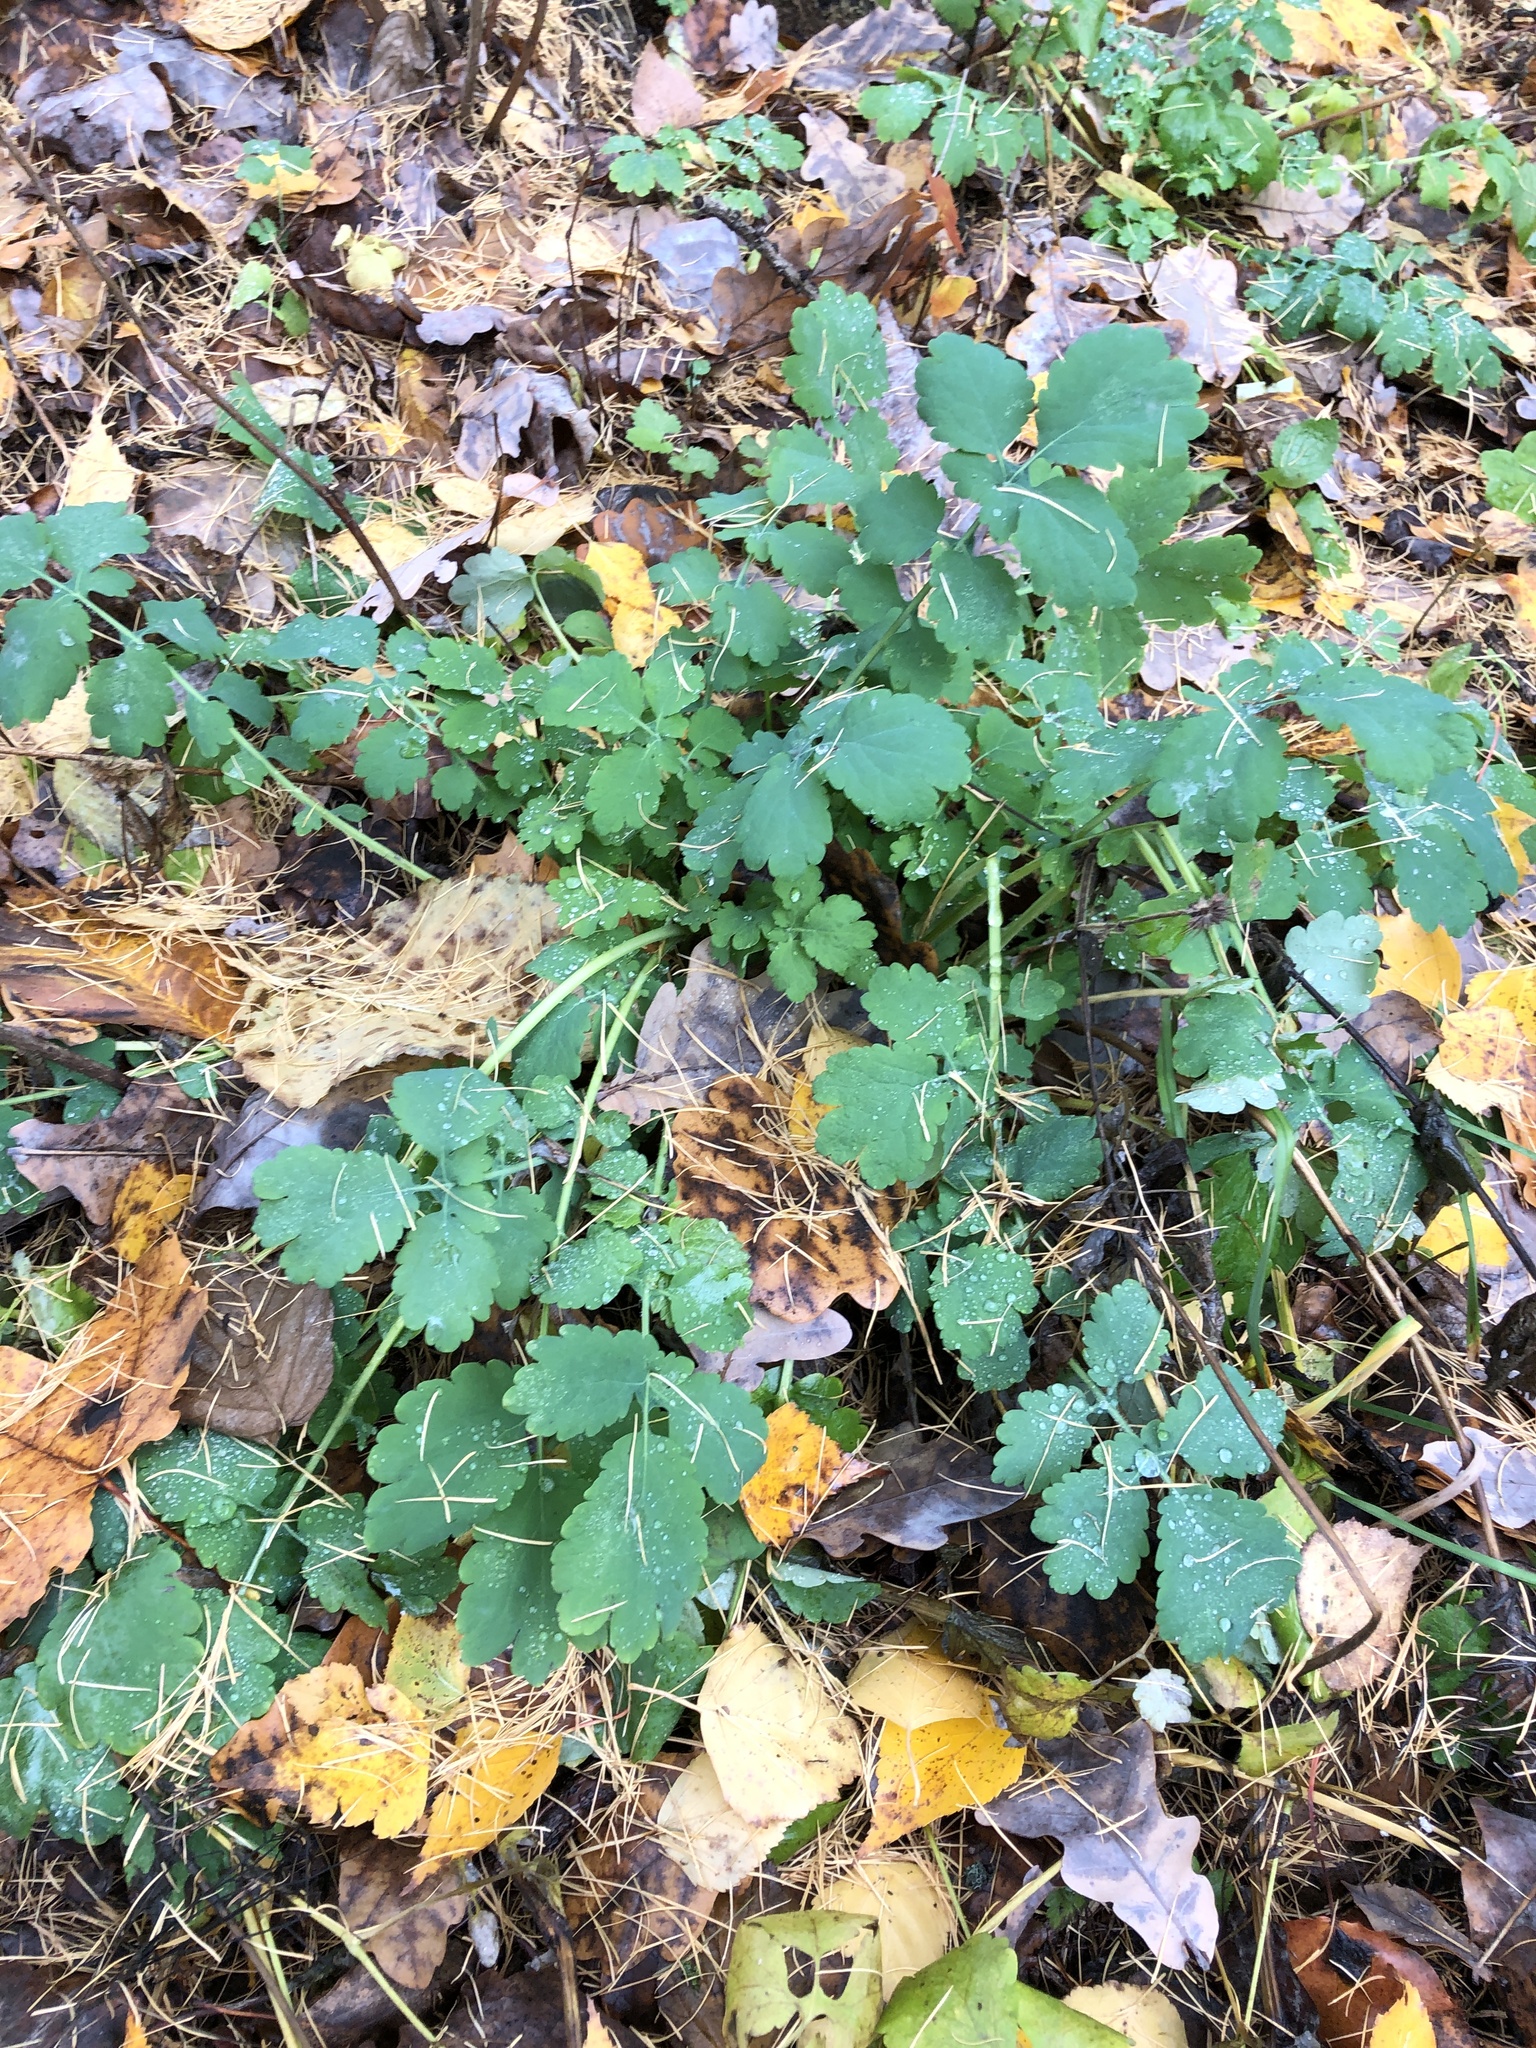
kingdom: Plantae
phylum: Tracheophyta
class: Magnoliopsida
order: Ranunculales
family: Papaveraceae
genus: Chelidonium
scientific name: Chelidonium majus
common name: Greater celandine
